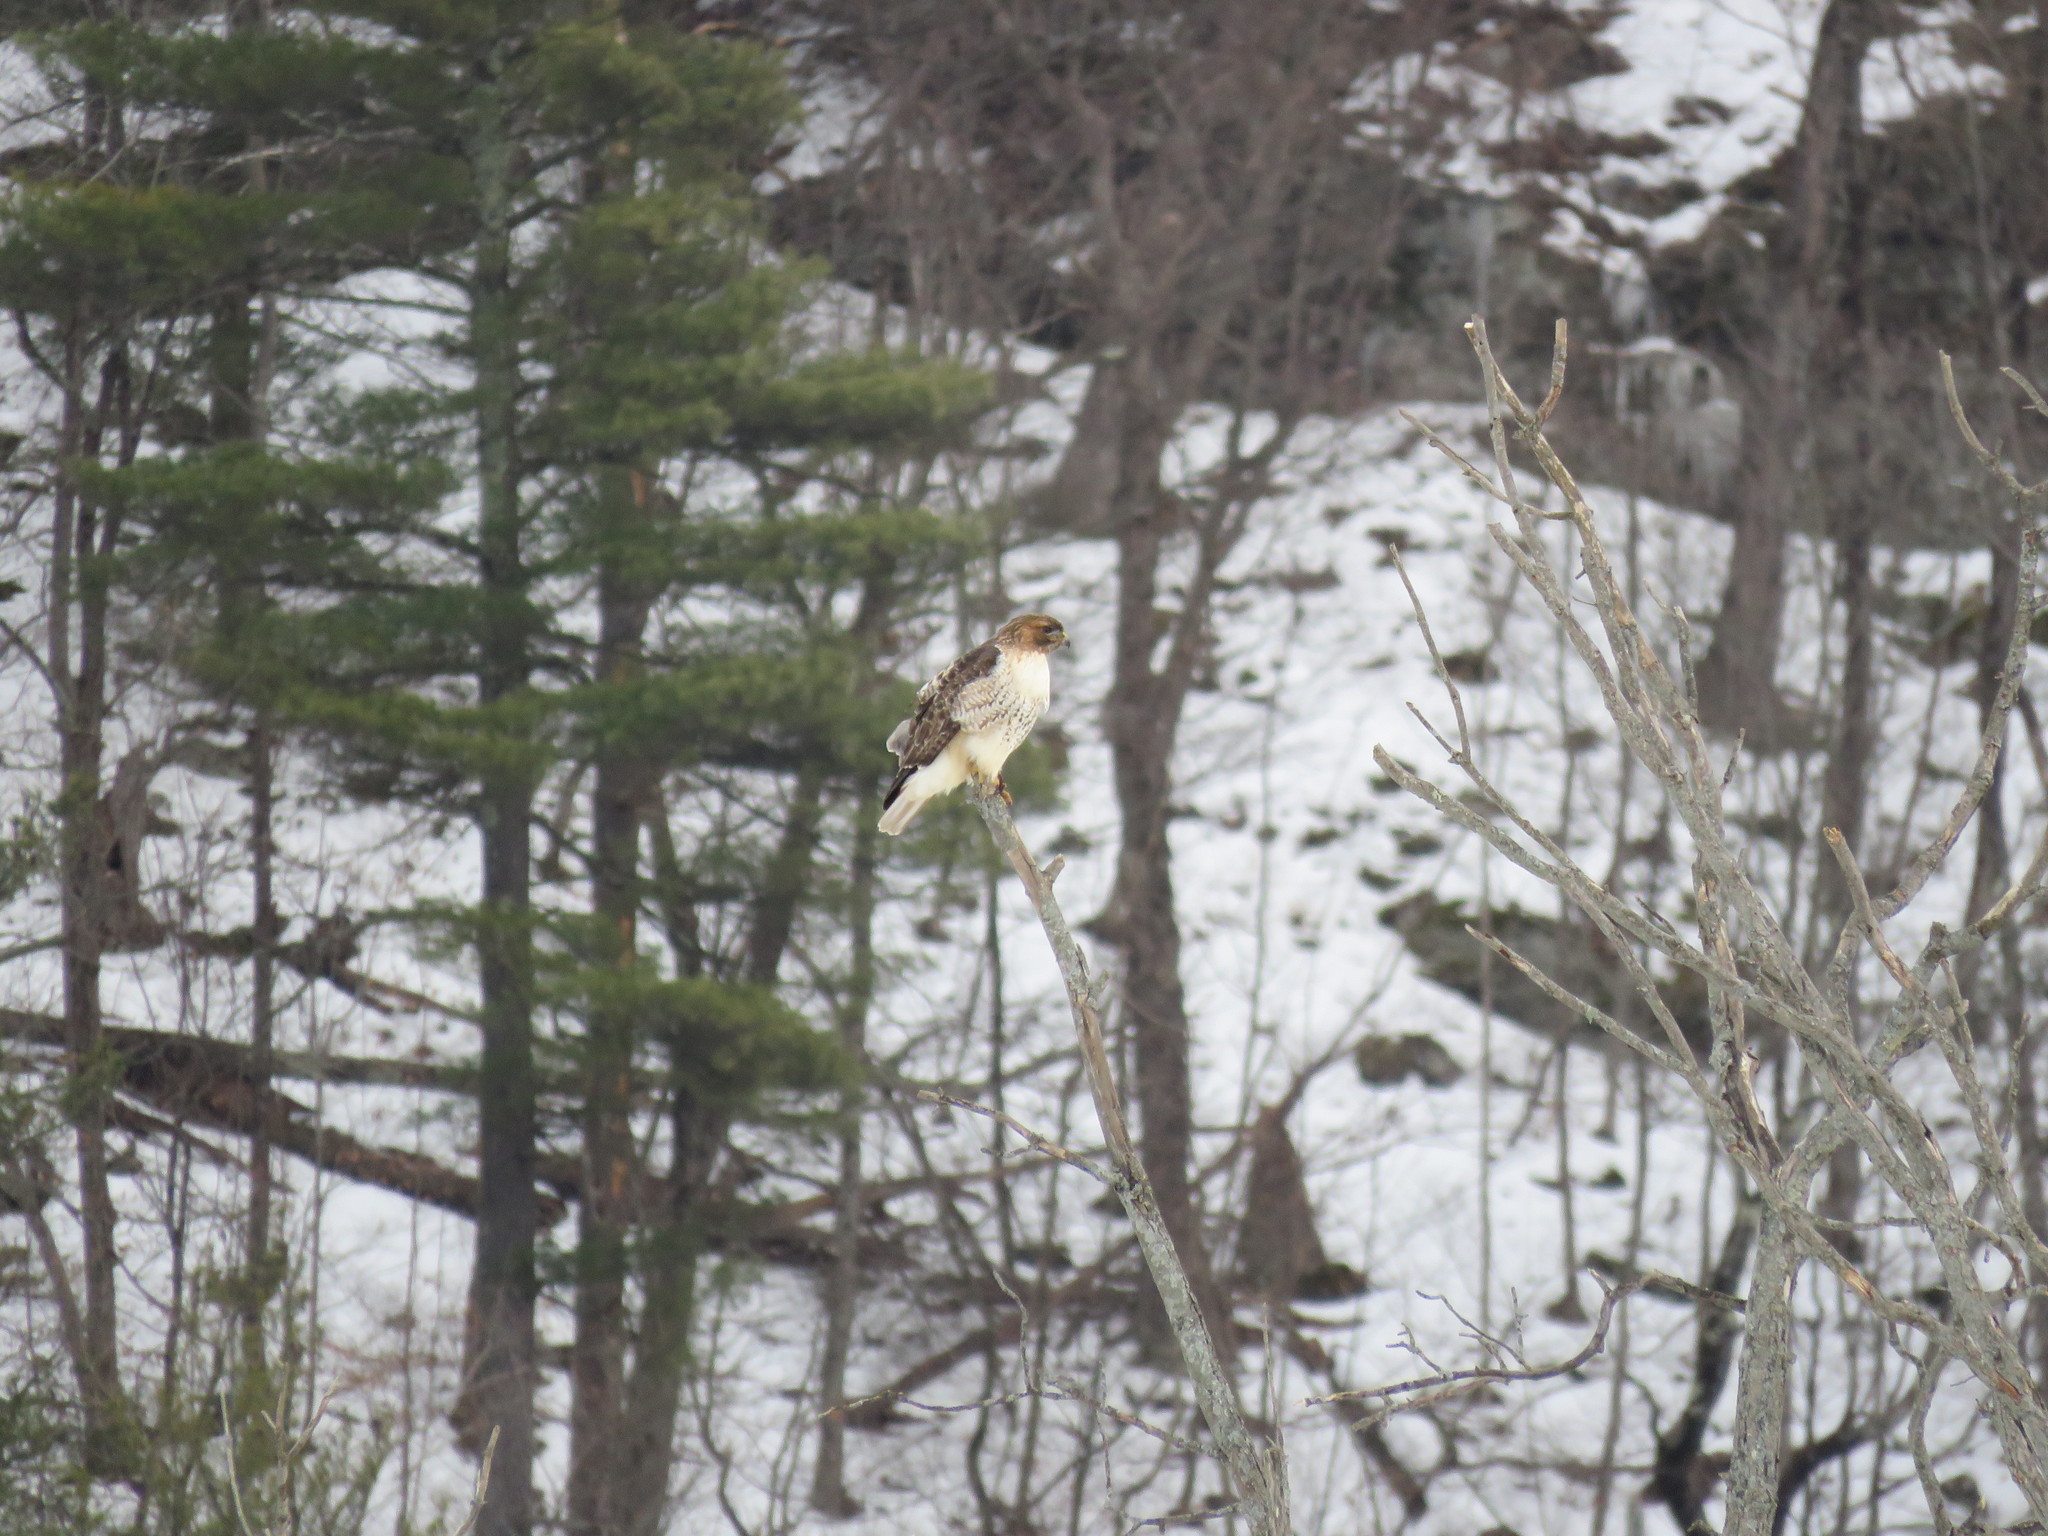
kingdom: Animalia
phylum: Chordata
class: Aves
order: Accipitriformes
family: Accipitridae
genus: Buteo
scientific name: Buteo jamaicensis
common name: Red-tailed hawk
